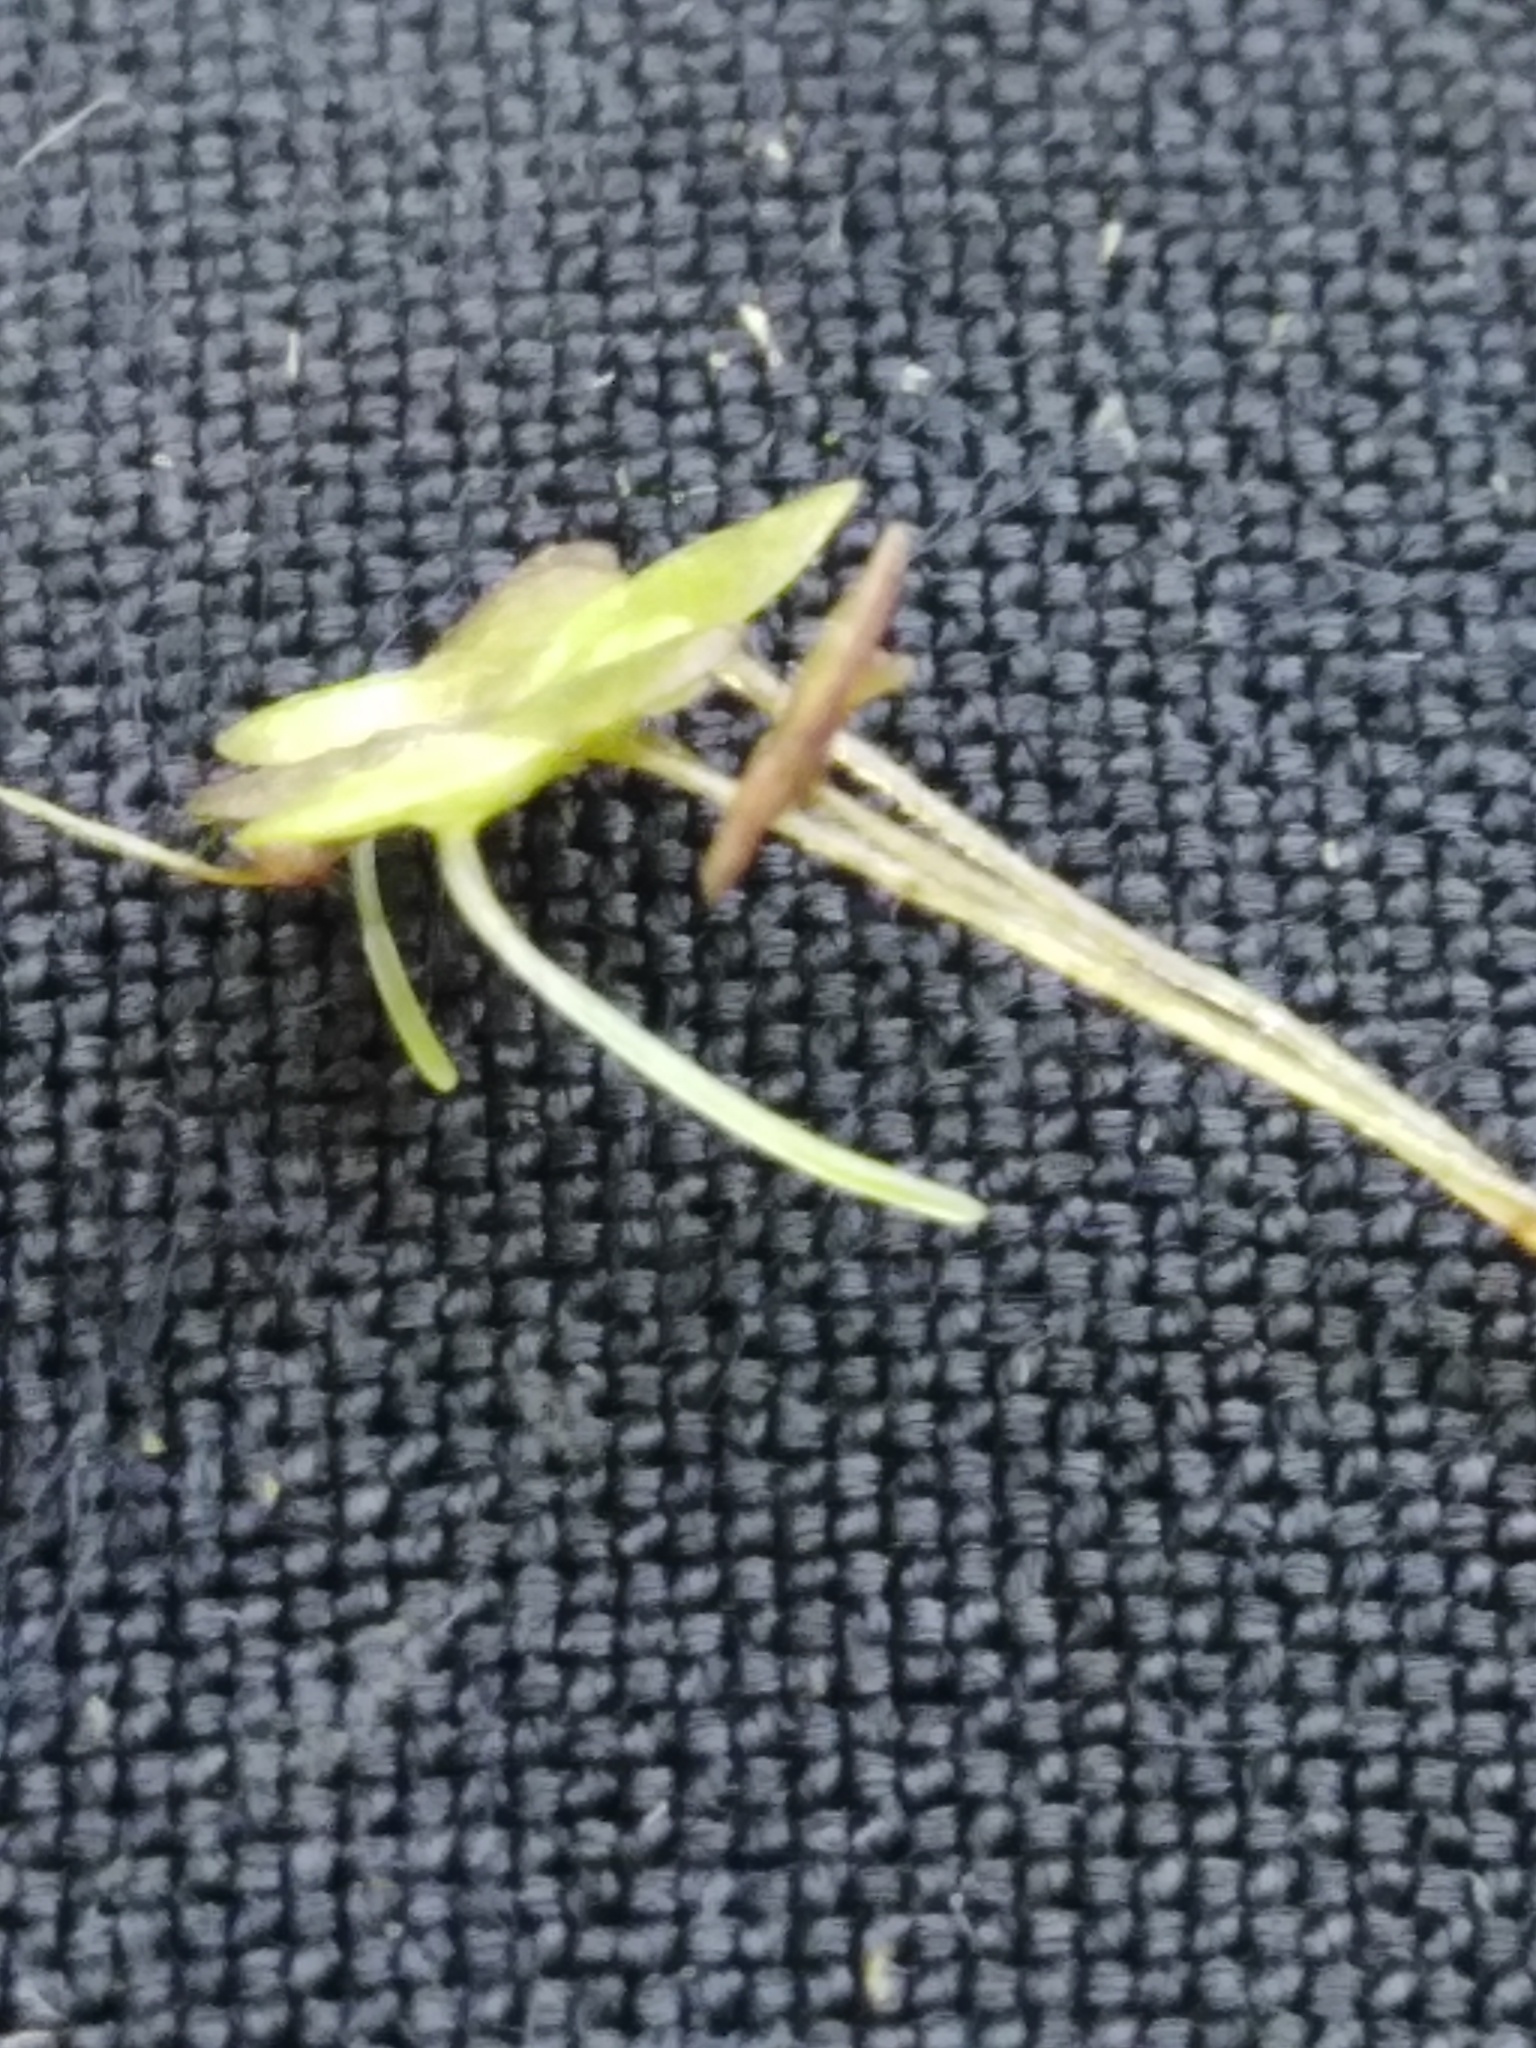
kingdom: Plantae
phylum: Tracheophyta
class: Liliopsida
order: Alismatales
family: Araceae
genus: Lemna
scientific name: Lemna minor
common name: Common duckweed
